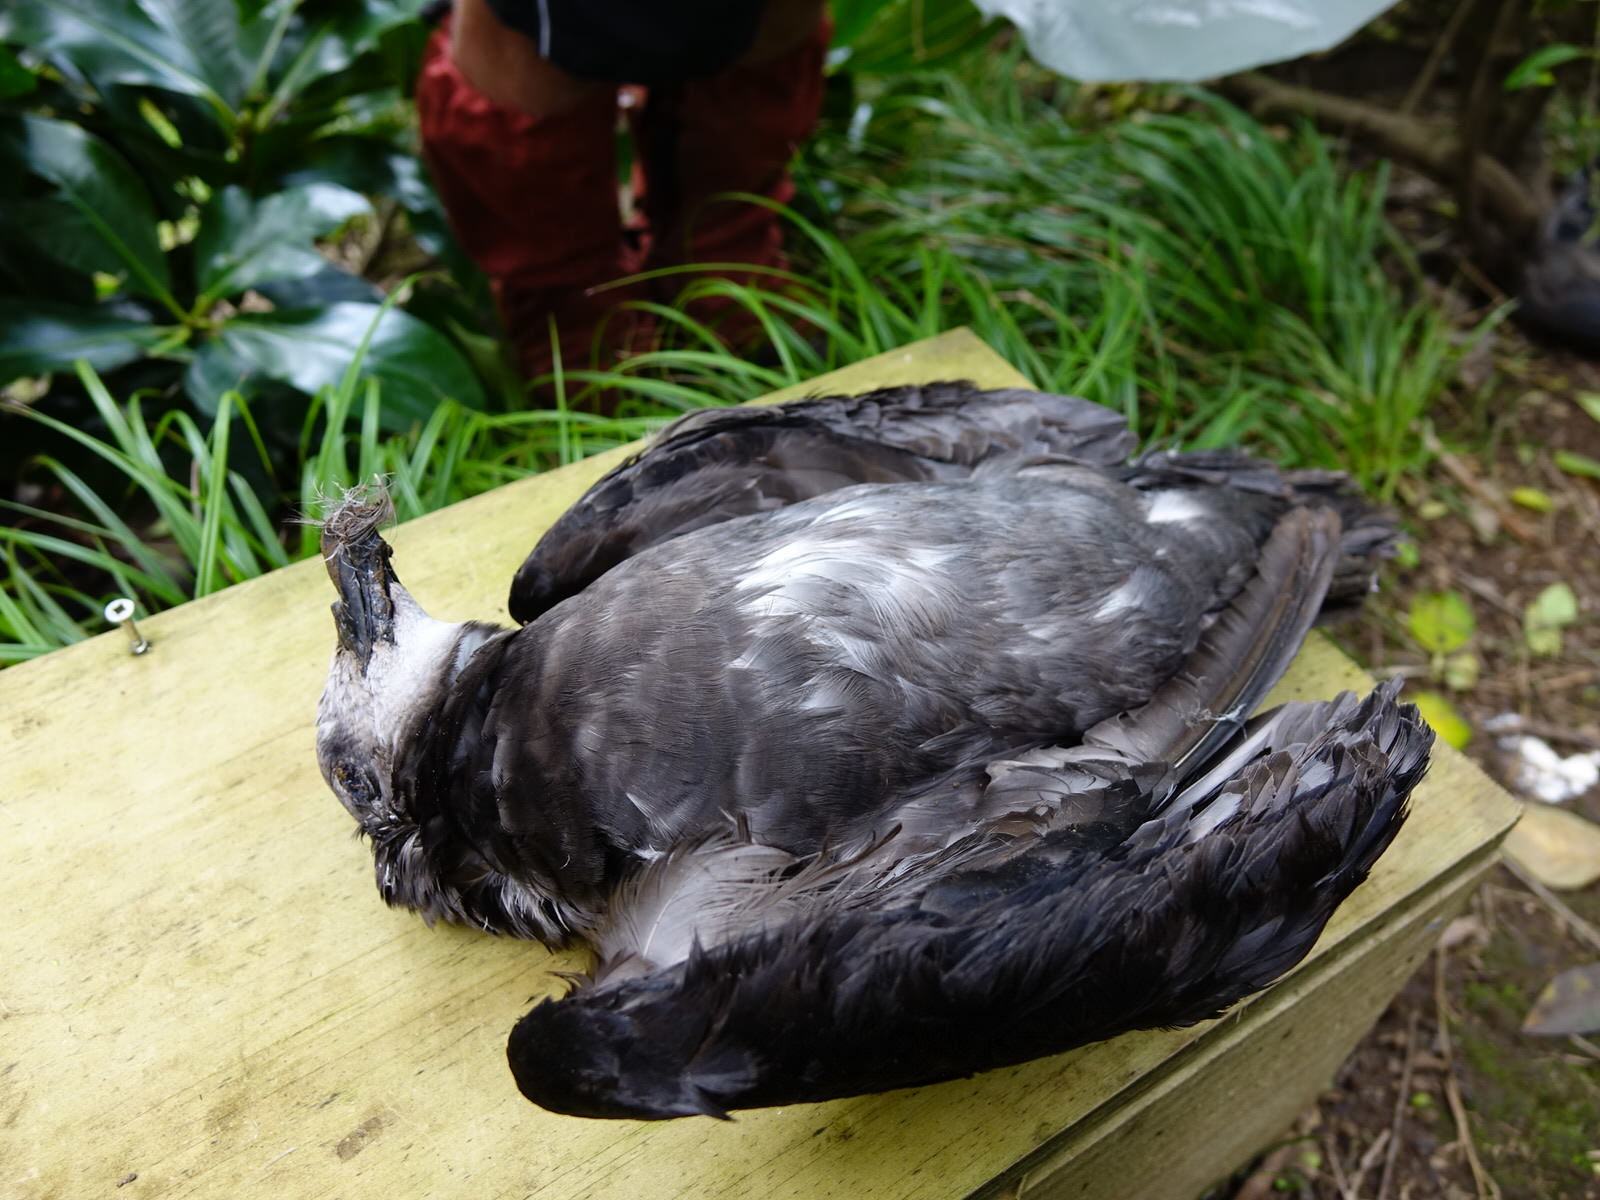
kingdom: Animalia
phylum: Chordata
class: Aves
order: Procellariiformes
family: Procellariidae
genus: Pterodroma
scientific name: Pterodroma macroptera
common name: Great-winged petrel
